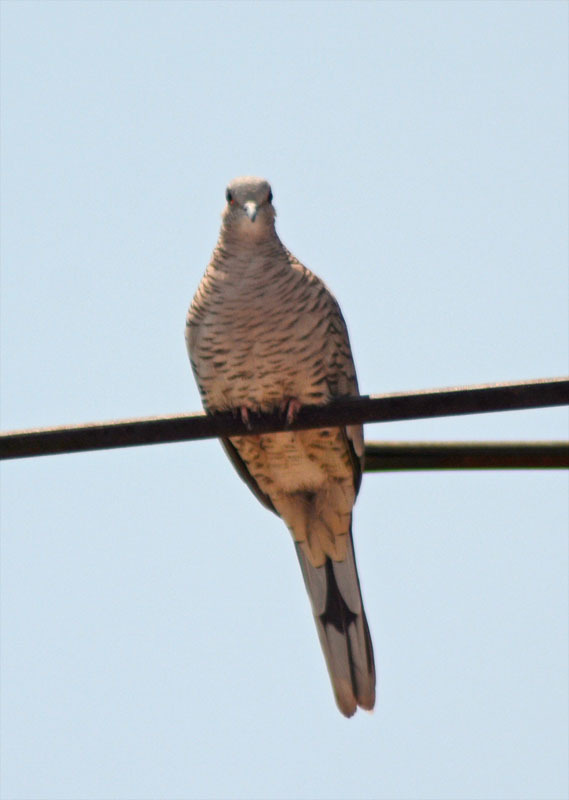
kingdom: Animalia
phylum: Chordata
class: Aves
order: Columbiformes
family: Columbidae
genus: Columbina
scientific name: Columbina inca
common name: Inca dove
